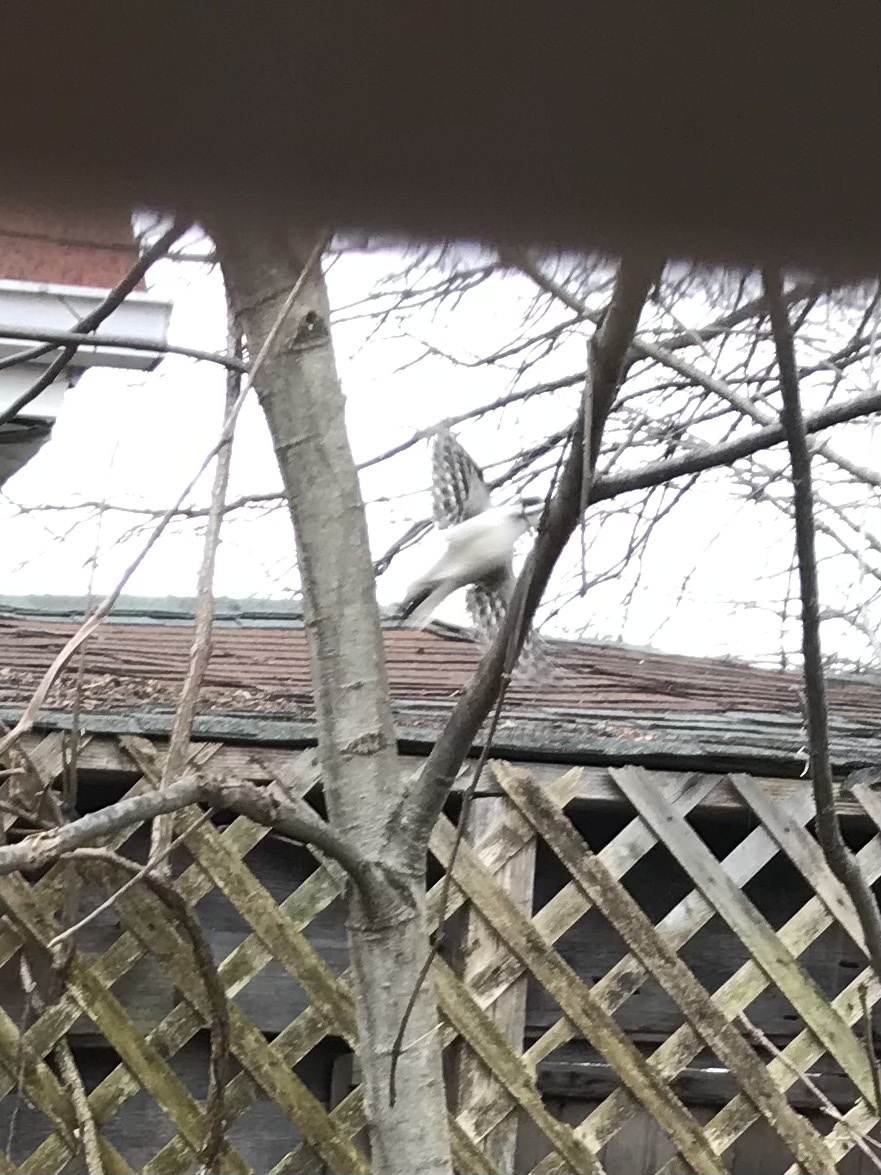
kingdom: Animalia
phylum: Chordata
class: Aves
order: Piciformes
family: Picidae
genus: Leuconotopicus
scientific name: Leuconotopicus villosus
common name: Hairy woodpecker
